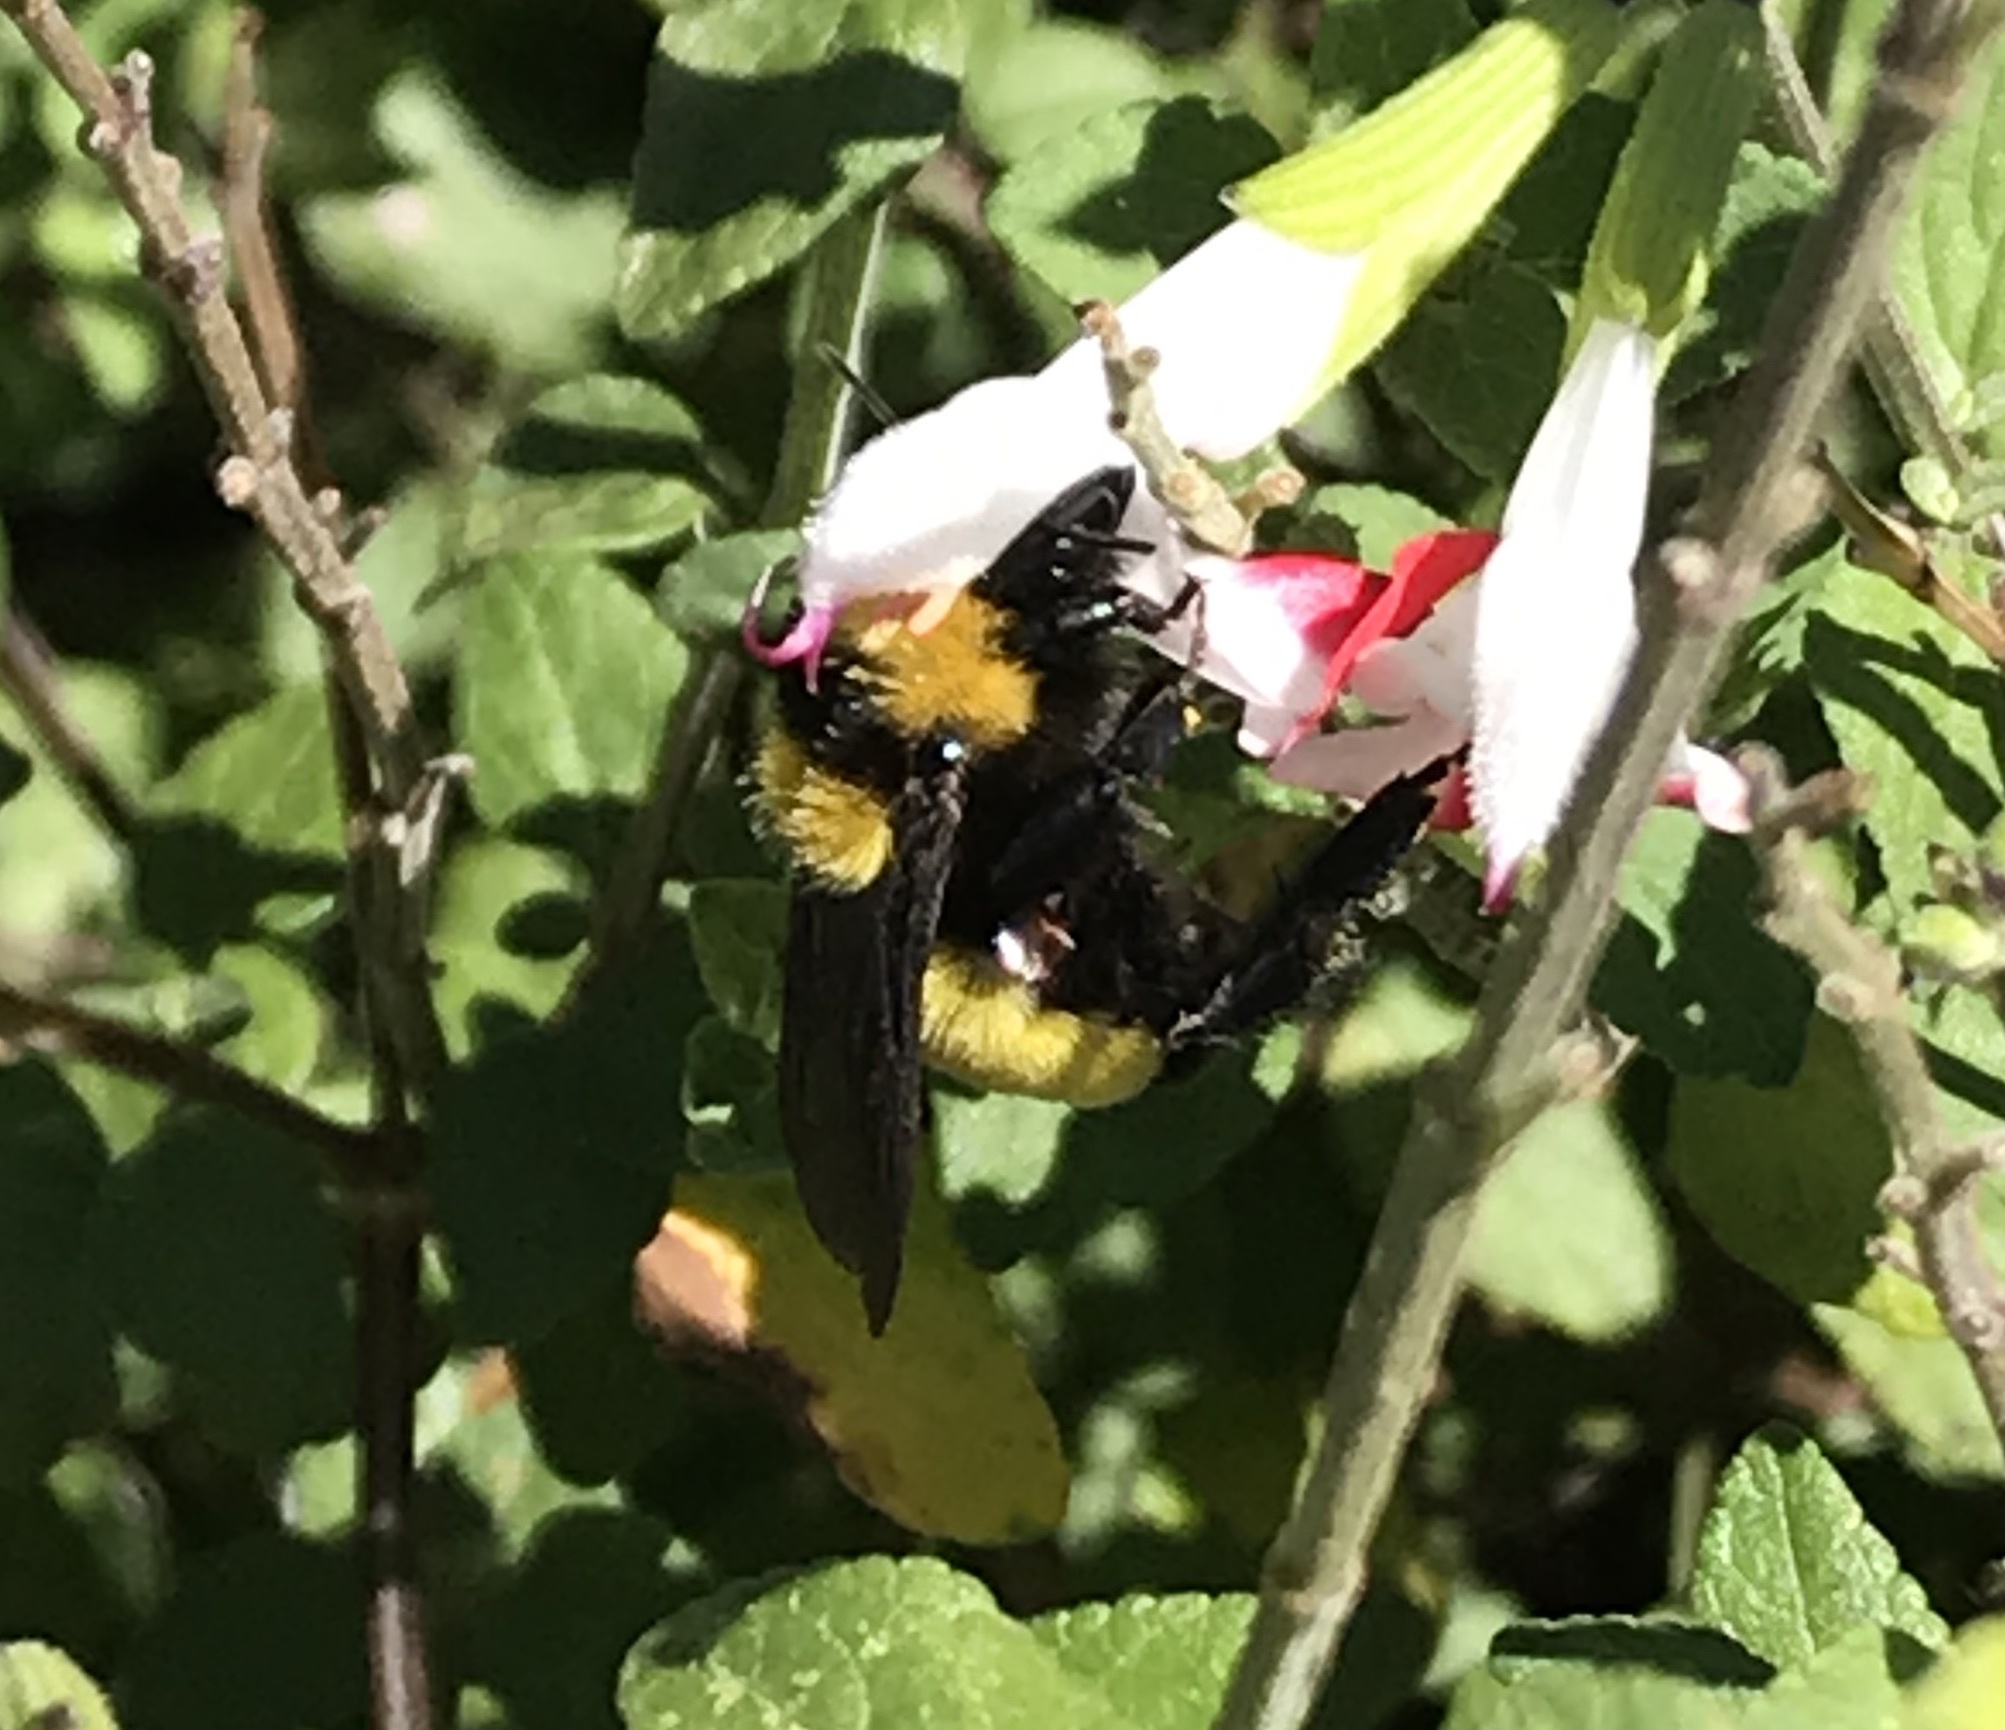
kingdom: Animalia
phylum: Arthropoda
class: Insecta
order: Hymenoptera
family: Apidae
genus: Bombus
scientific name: Bombus sonorus
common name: Sonoran bumble bee
